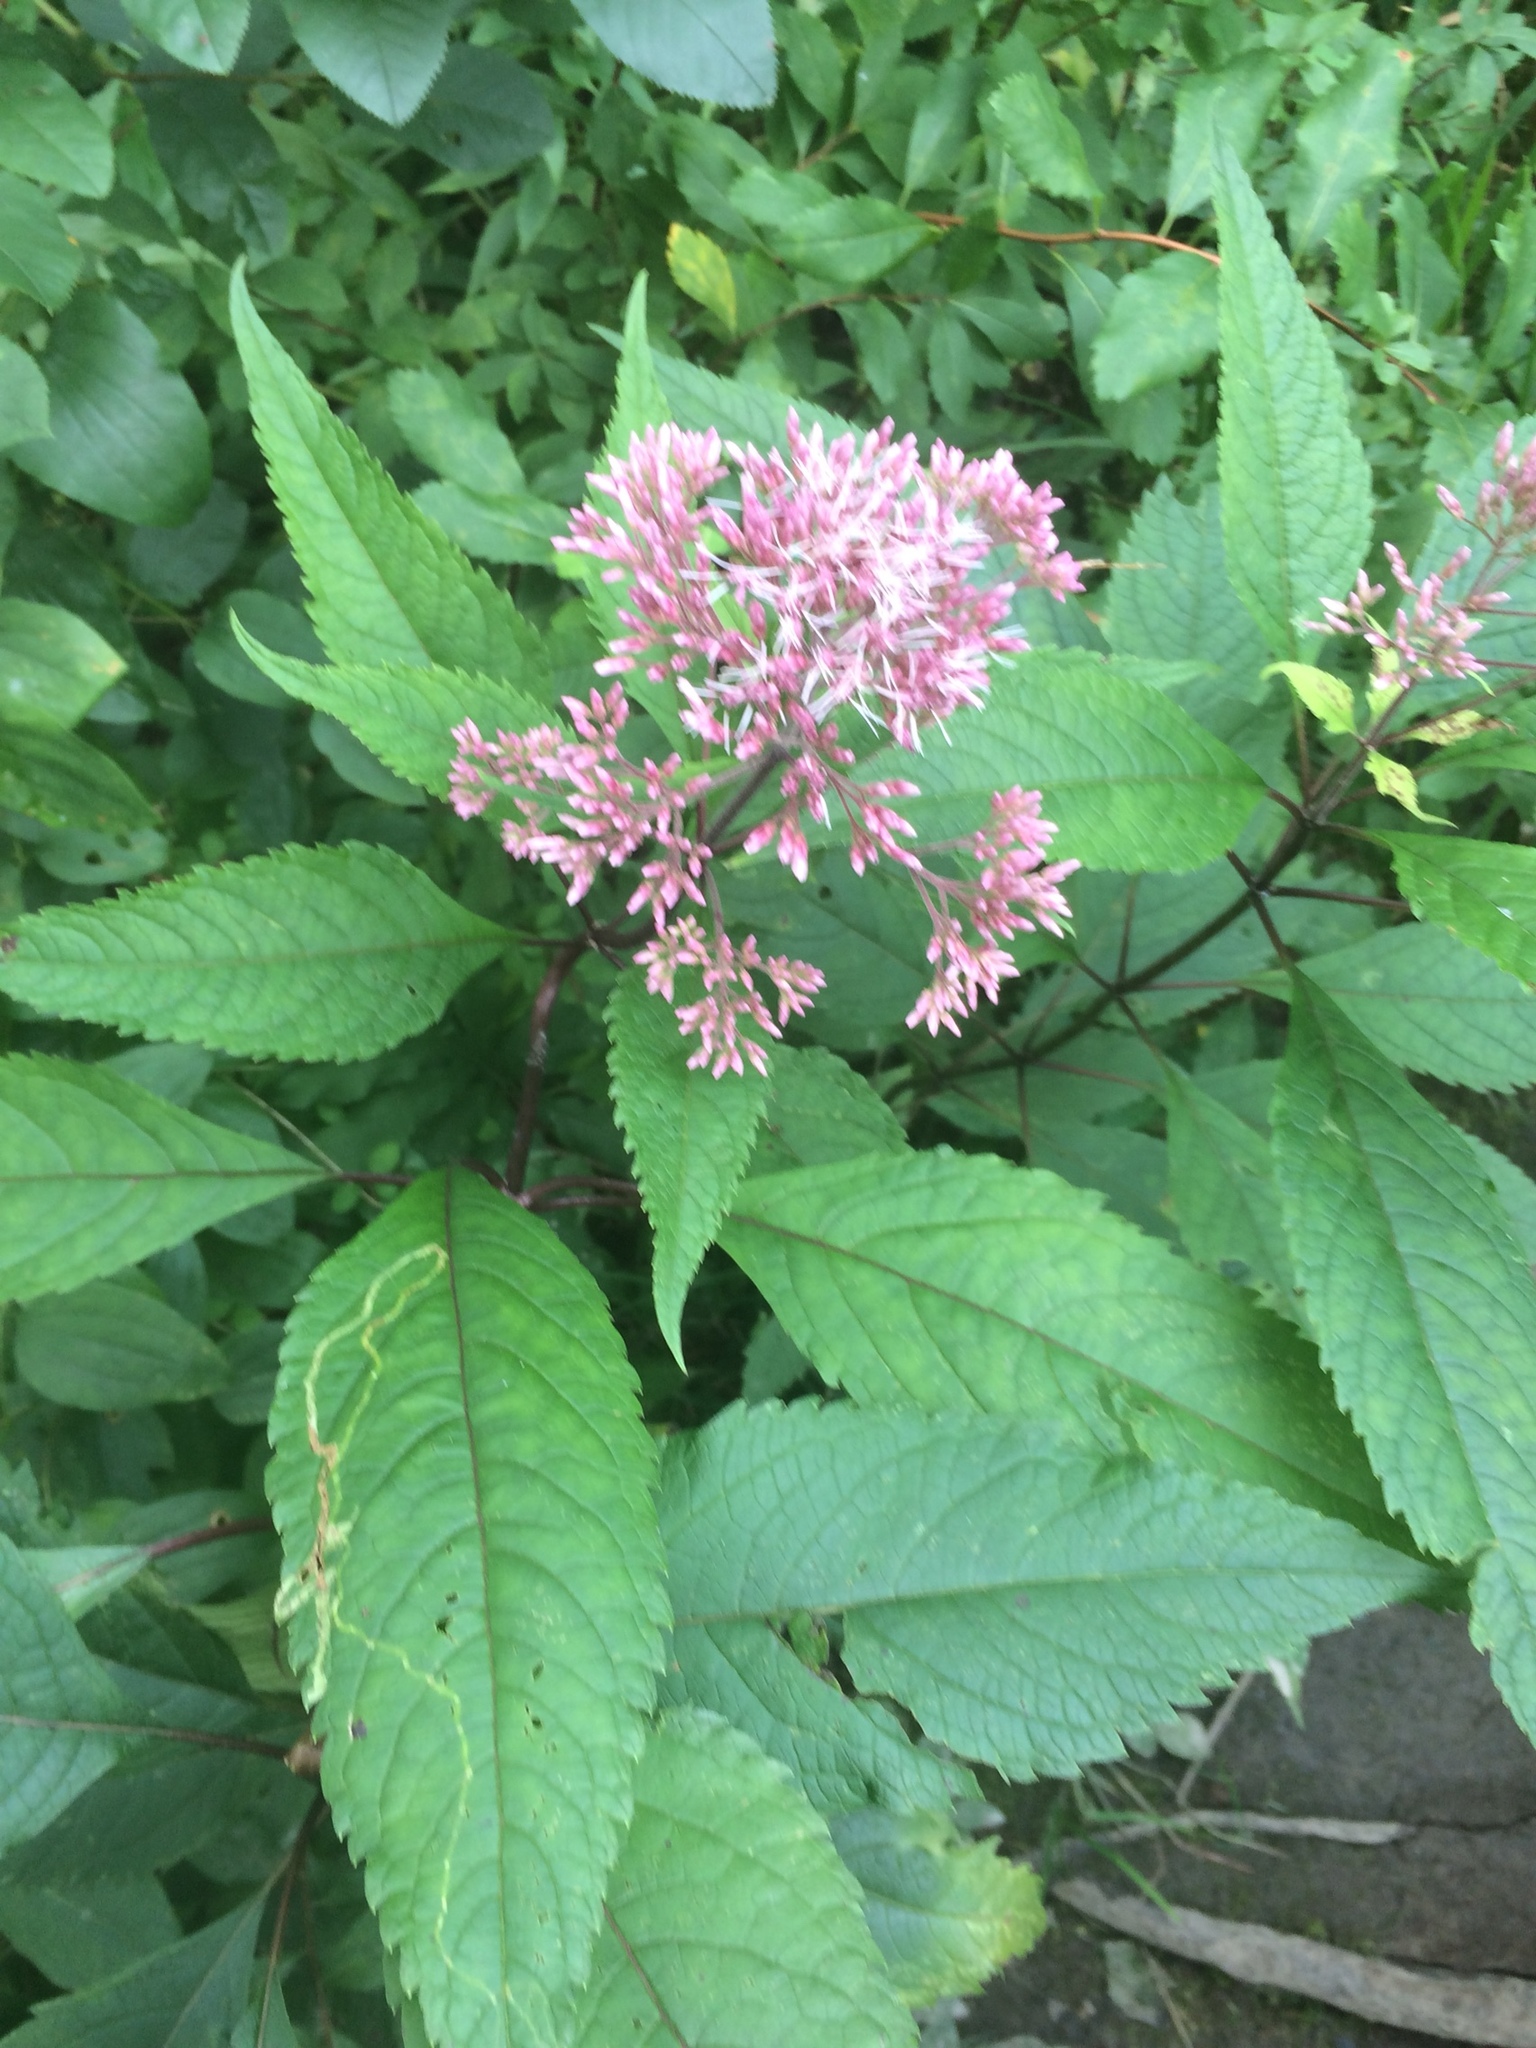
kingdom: Plantae
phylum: Tracheophyta
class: Magnoliopsida
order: Asterales
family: Asteraceae
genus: Eutrochium
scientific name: Eutrochium maculatum
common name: Spotted joe pye weed
